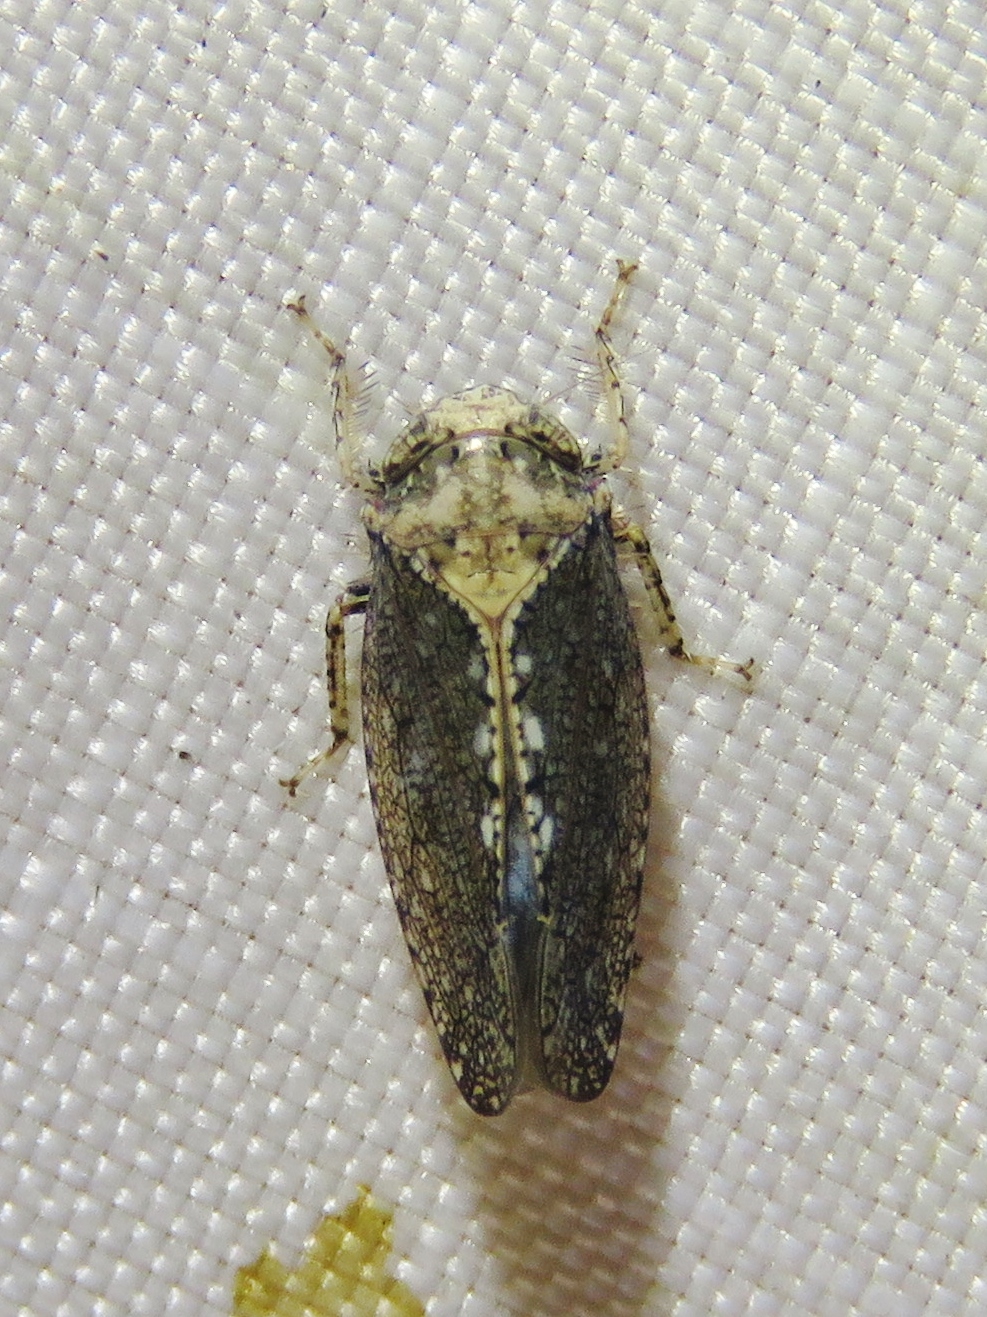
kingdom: Animalia
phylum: Arthropoda
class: Insecta
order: Hemiptera
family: Cicadellidae
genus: Excultanus
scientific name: Excultanus excultus
